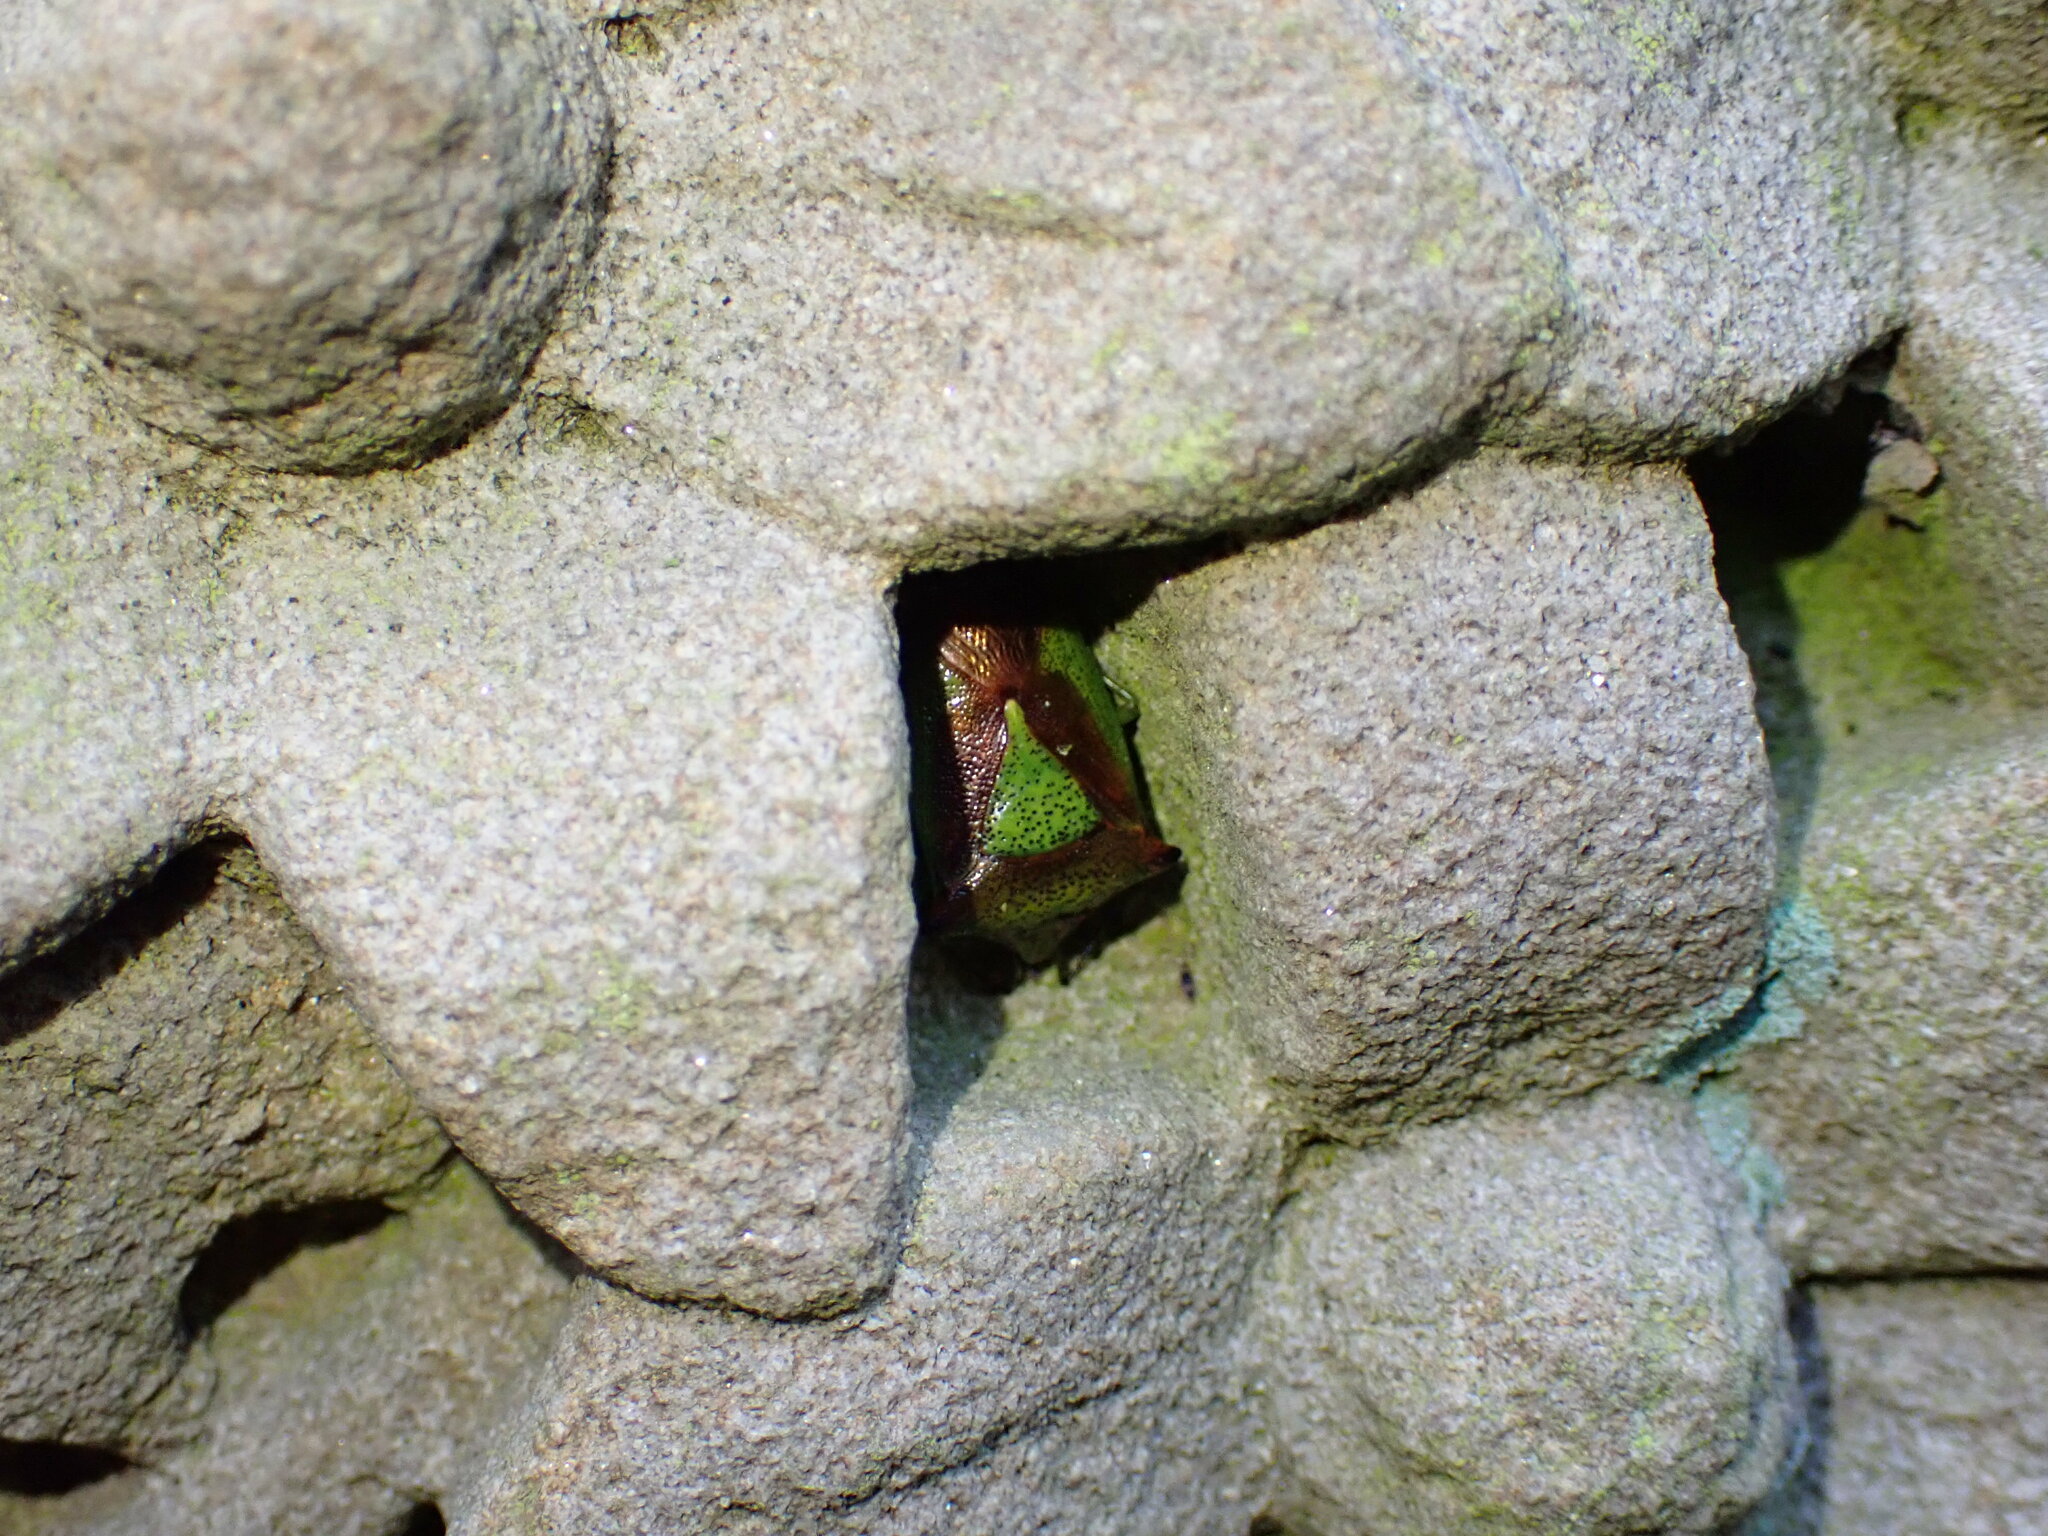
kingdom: Animalia
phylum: Arthropoda
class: Insecta
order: Hemiptera
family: Acanthosomatidae
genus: Acanthosoma
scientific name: Acanthosoma haemorrhoidale
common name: Hawthorn shieldbug
